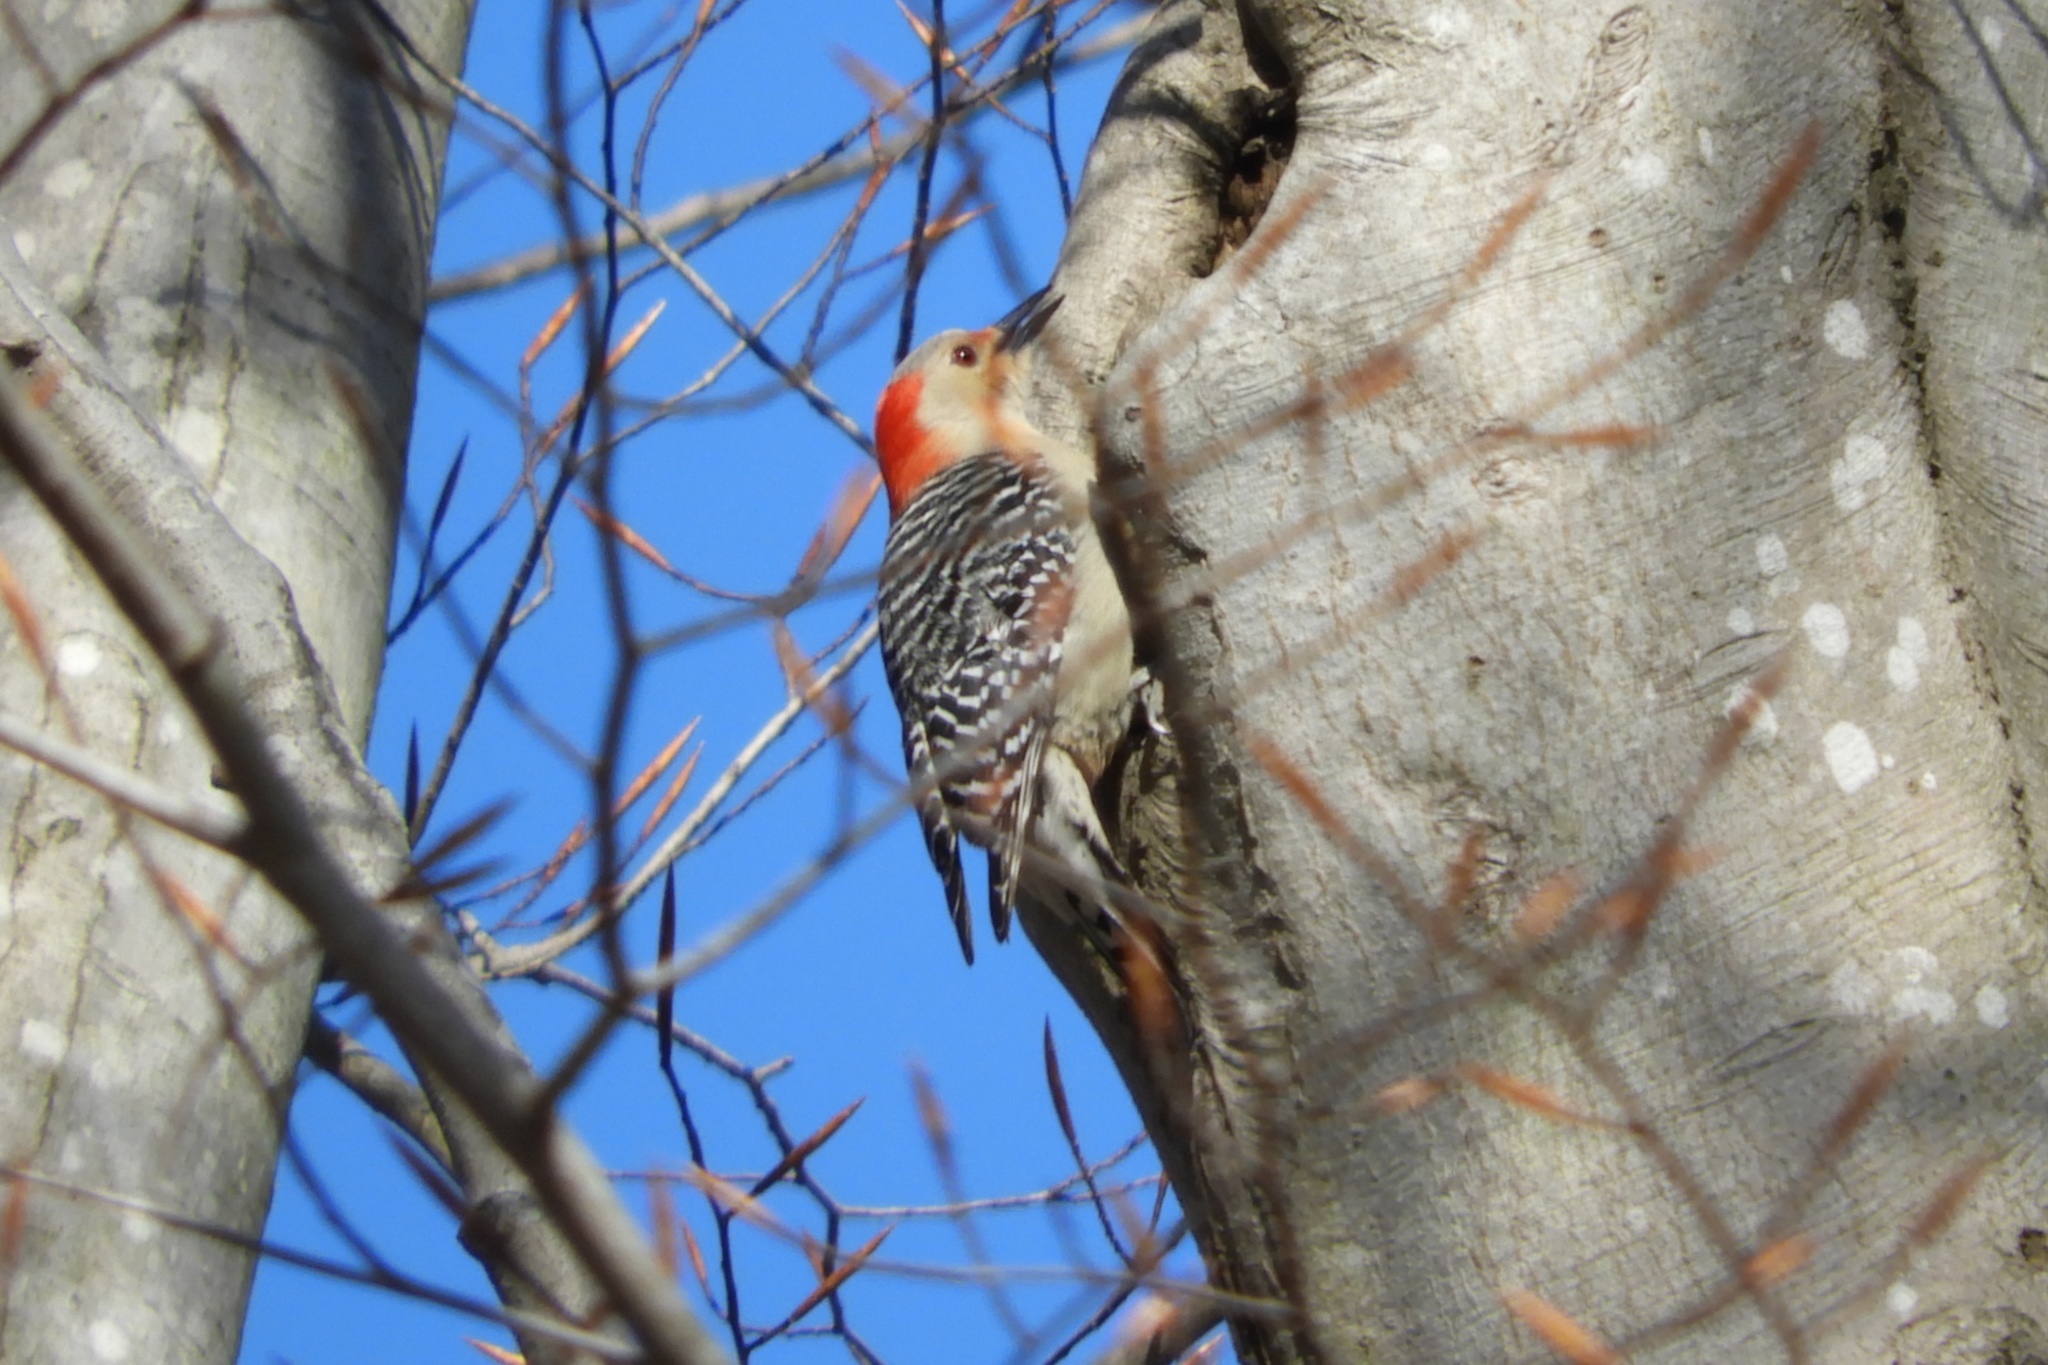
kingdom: Animalia
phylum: Chordata
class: Aves
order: Piciformes
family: Picidae
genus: Melanerpes
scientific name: Melanerpes carolinus
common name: Red-bellied woodpecker
